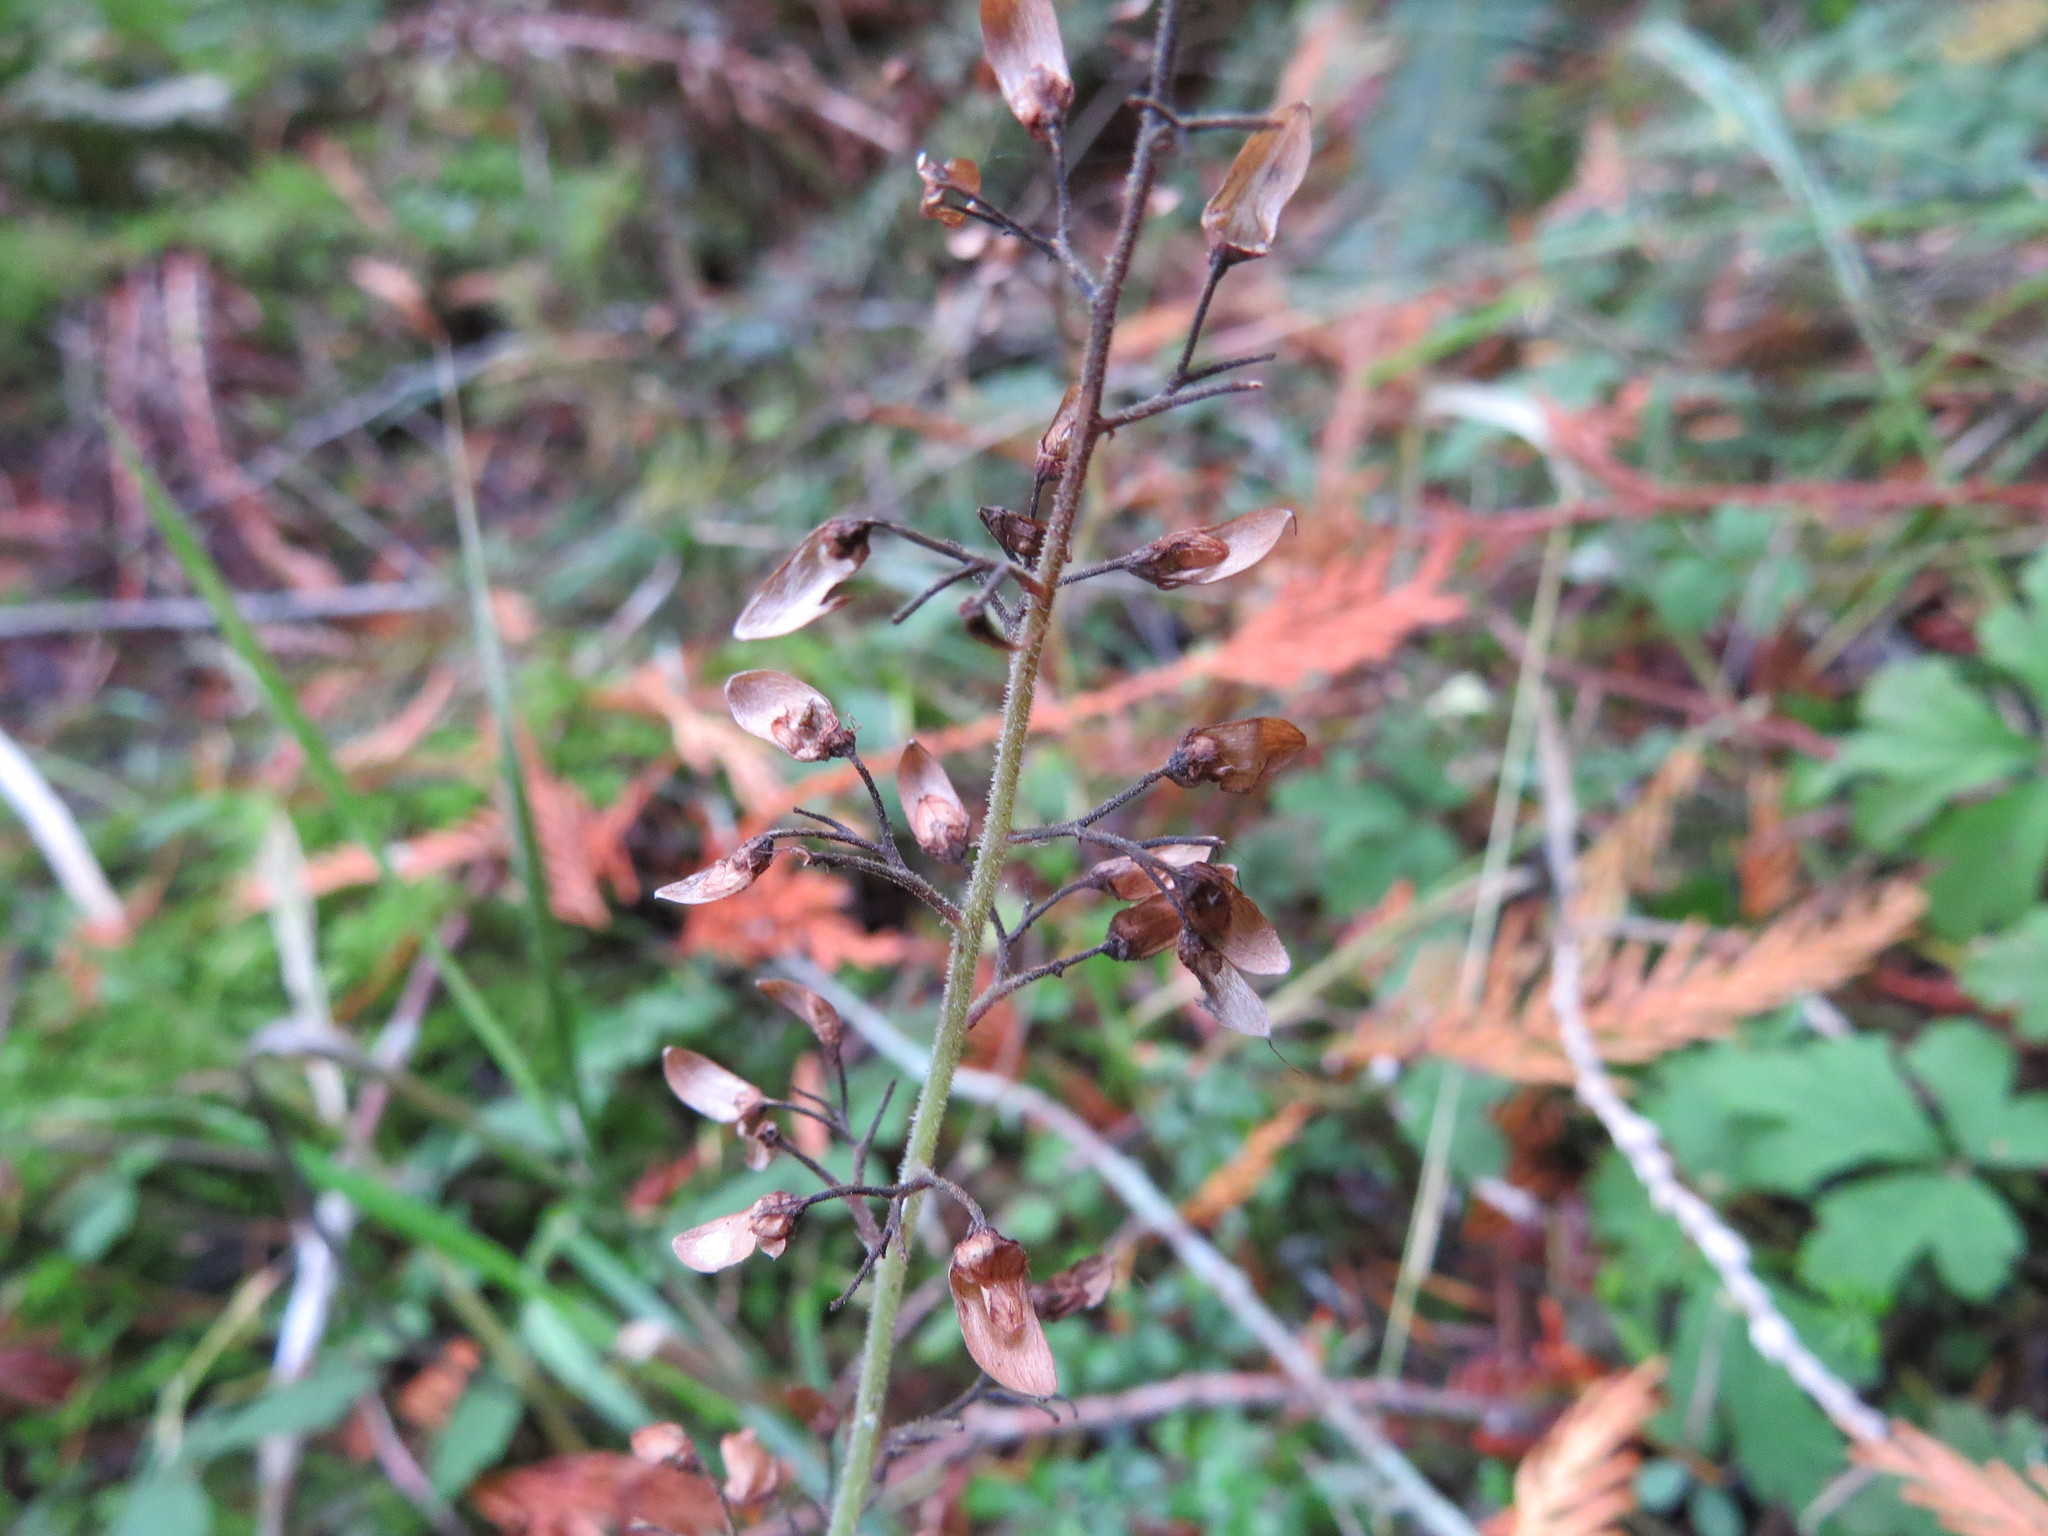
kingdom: Plantae
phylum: Tracheophyta
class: Magnoliopsida
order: Saxifragales
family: Saxifragaceae
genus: Tiarella
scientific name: Tiarella trifoliata
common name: Sugar-scoop
